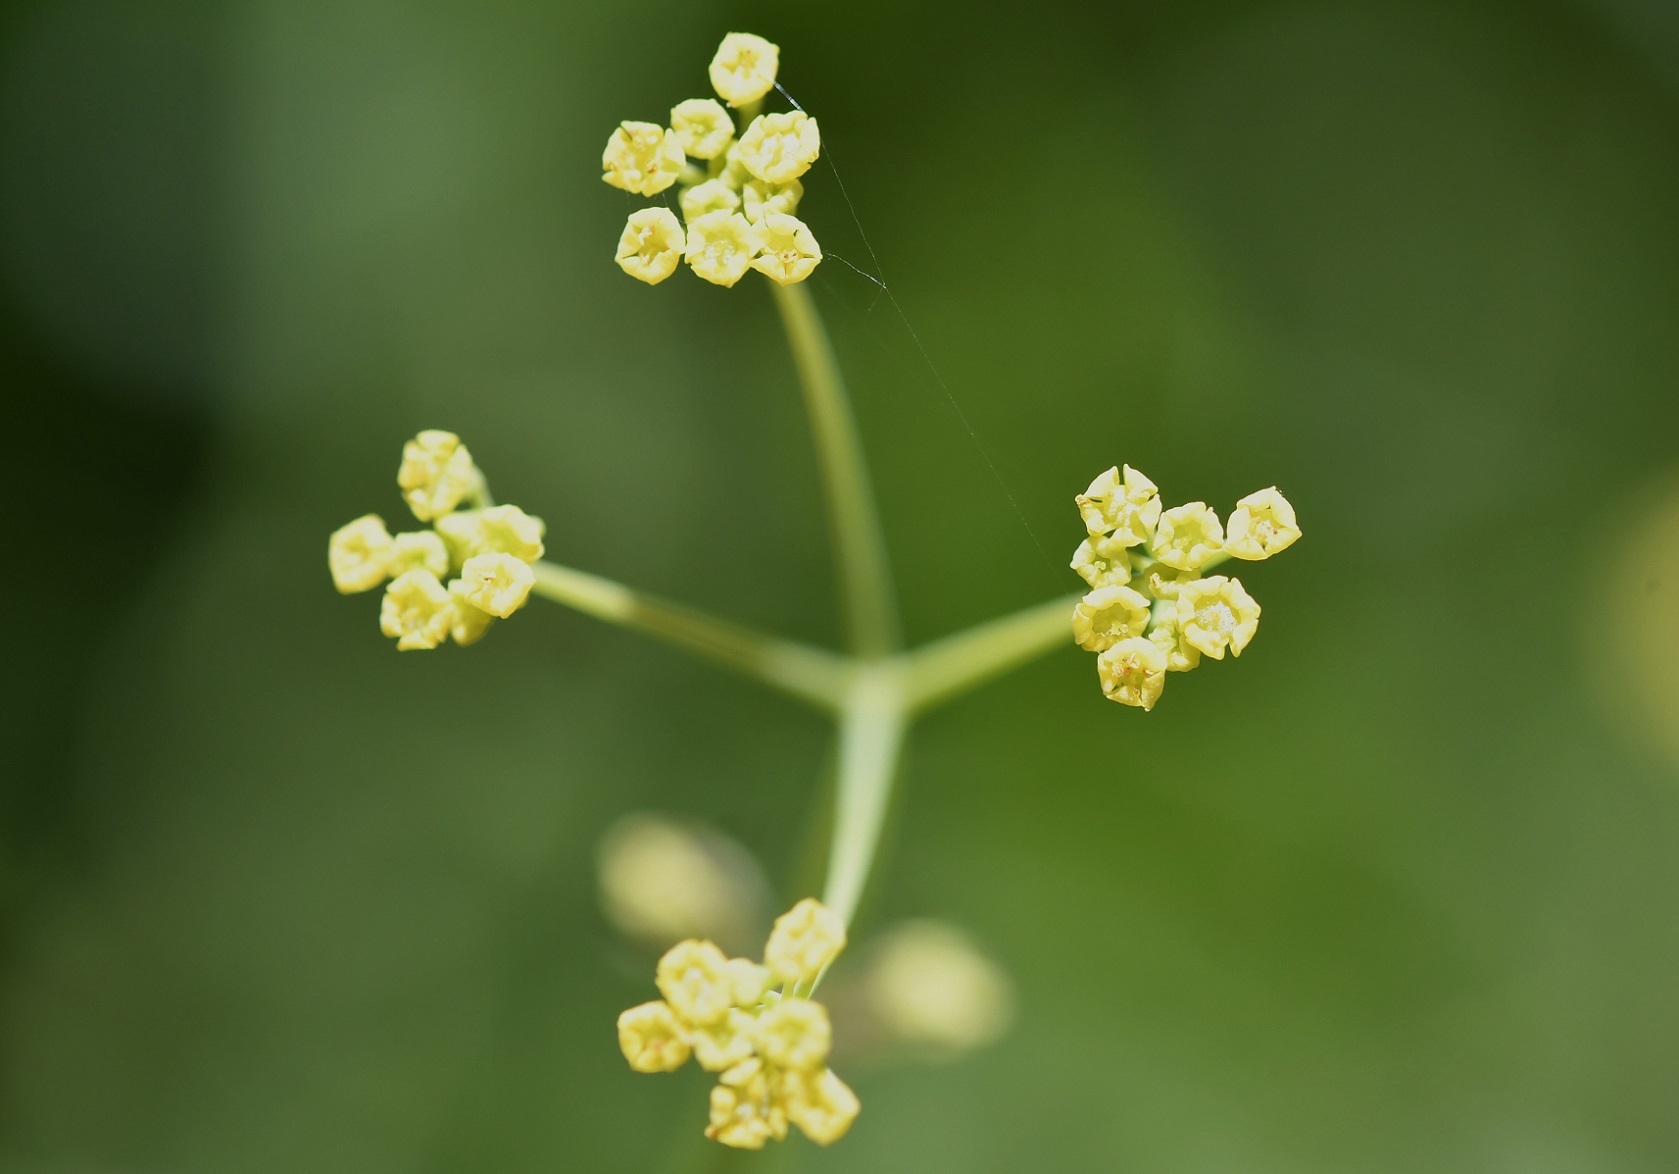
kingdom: Plantae
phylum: Tracheophyta
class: Magnoliopsida
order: Apiales
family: Apiaceae
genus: Donnellsmithia
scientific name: Donnellsmithia juncea
